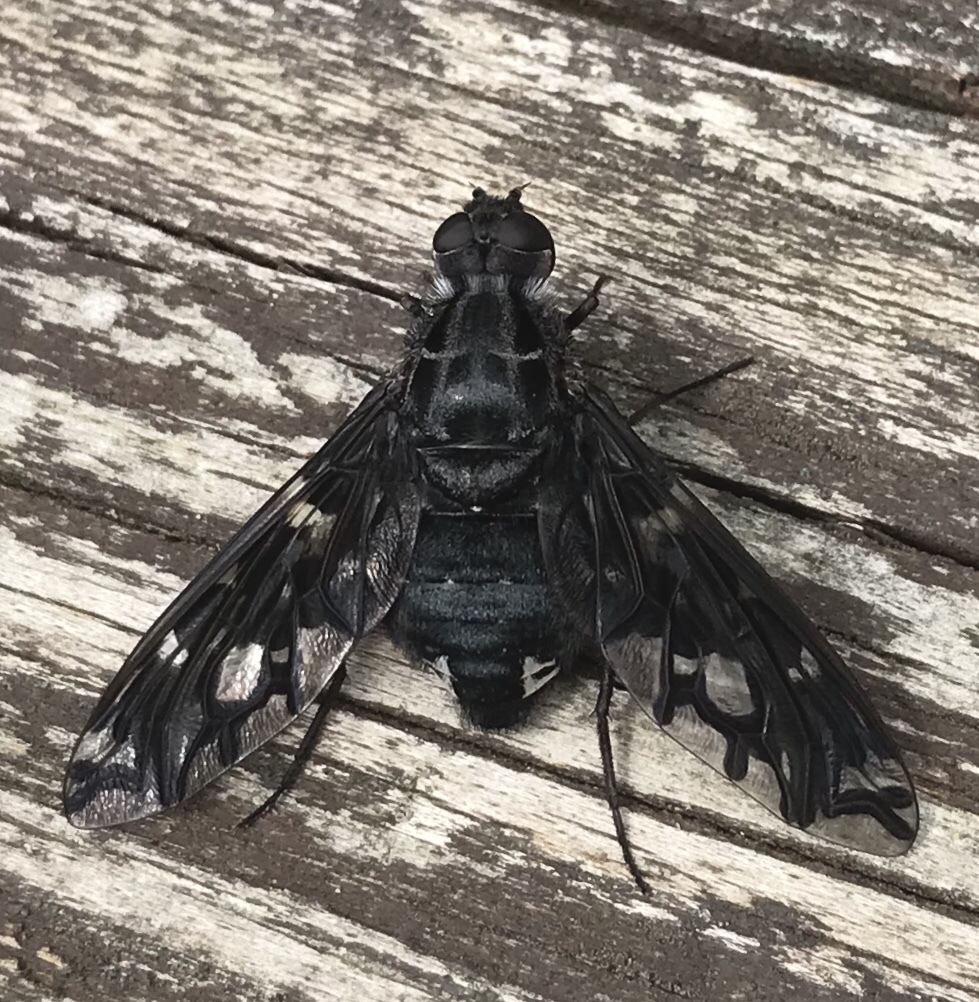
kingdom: Animalia
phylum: Arthropoda
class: Insecta
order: Diptera
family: Bombyliidae
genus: Xenox
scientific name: Xenox tigrinus
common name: Tiger bee fly
